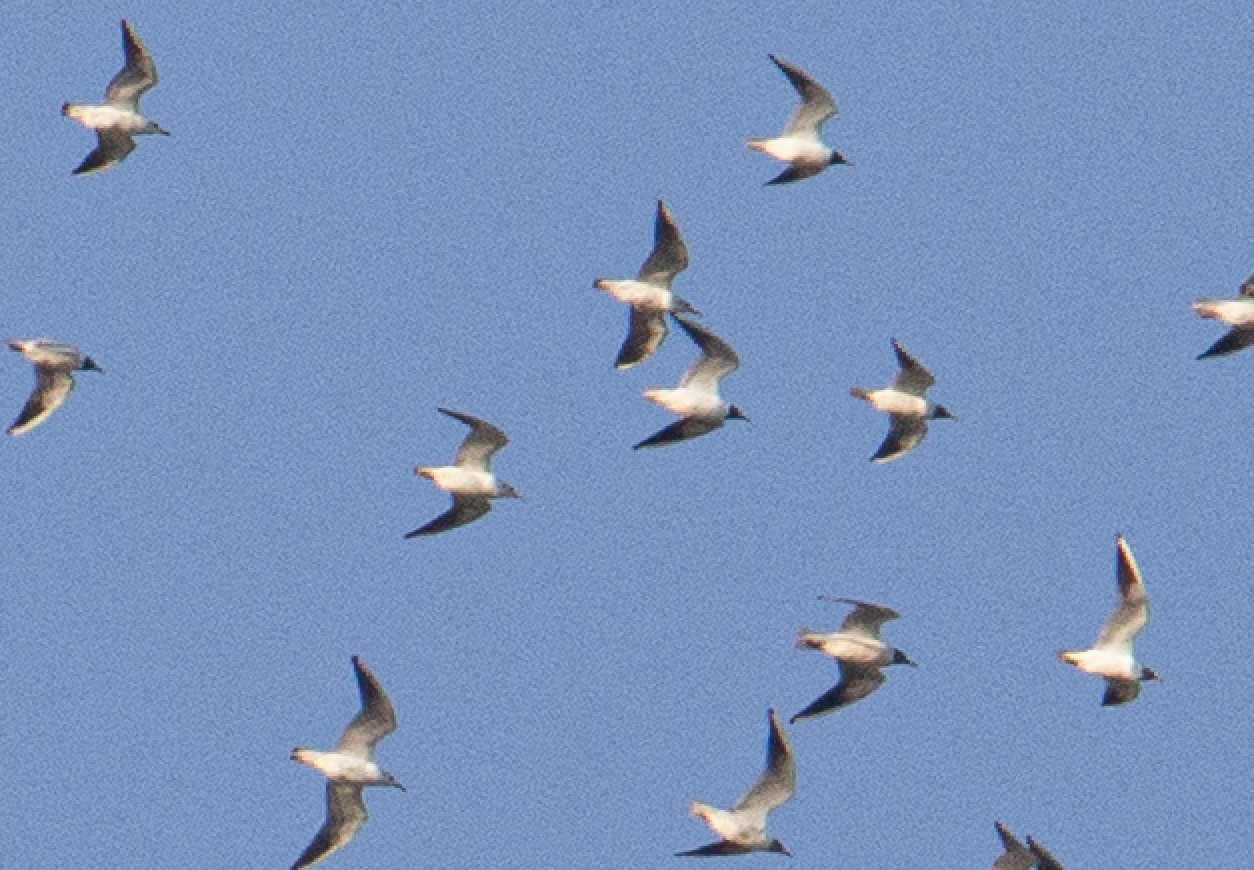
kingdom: Animalia
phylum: Chordata
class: Aves
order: Charadriiformes
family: Laridae
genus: Chroicocephalus
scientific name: Chroicocephalus ridibundus
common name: Black-headed gull
